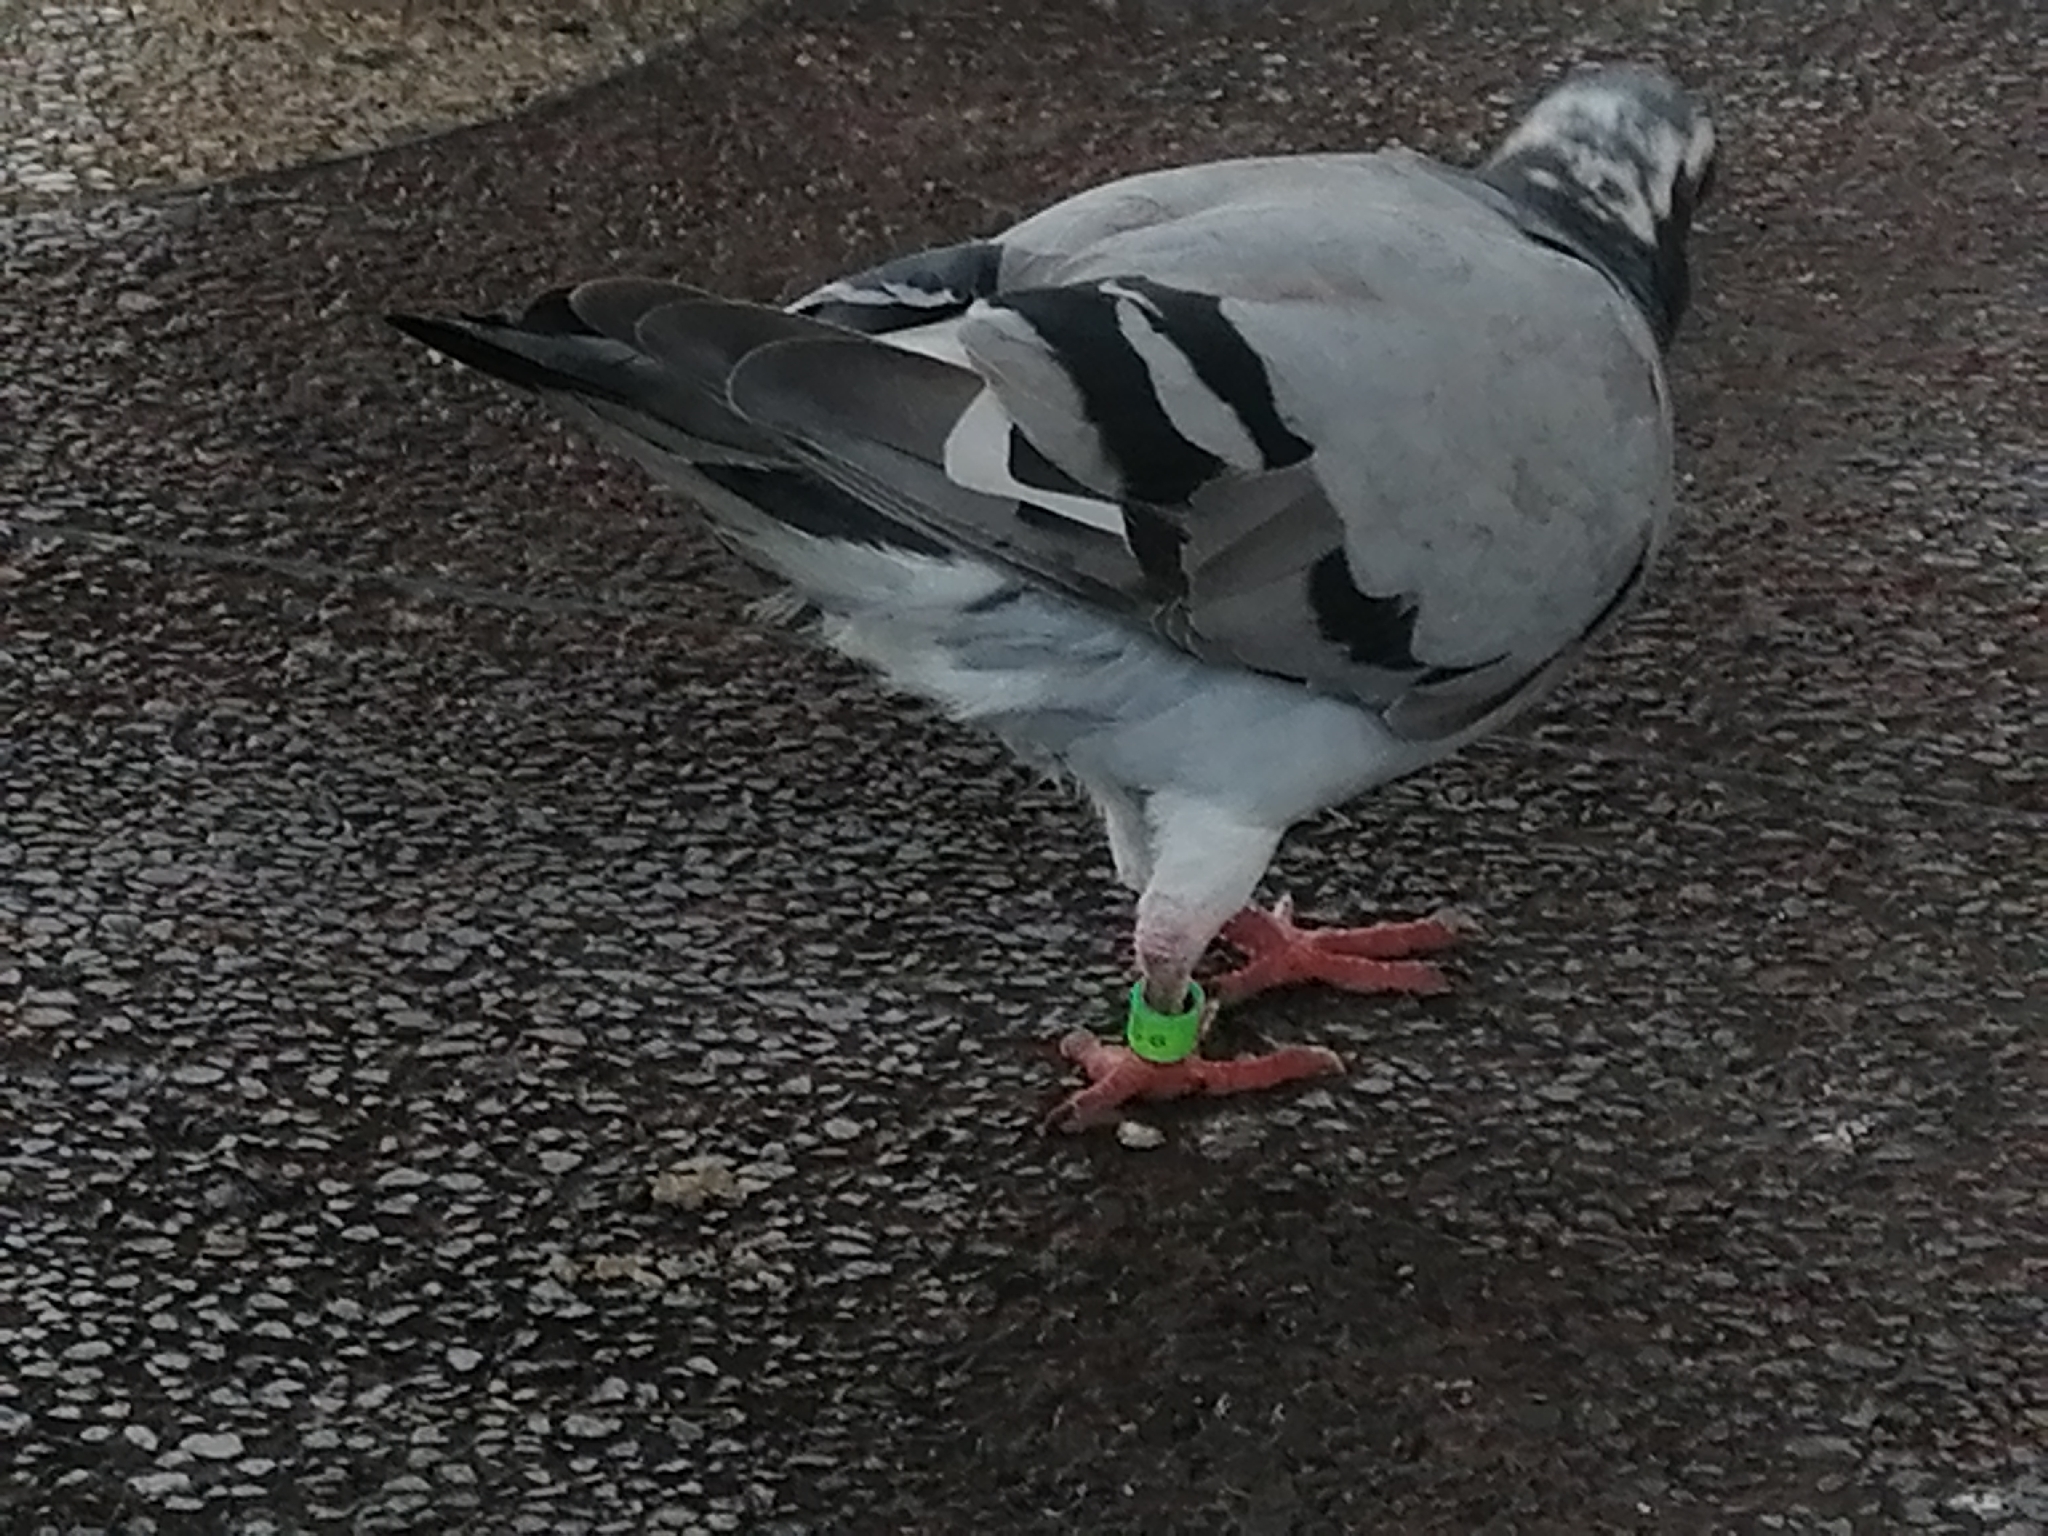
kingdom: Animalia
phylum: Chordata
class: Aves
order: Columbiformes
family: Columbidae
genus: Columba
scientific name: Columba livia
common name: Rock pigeon
